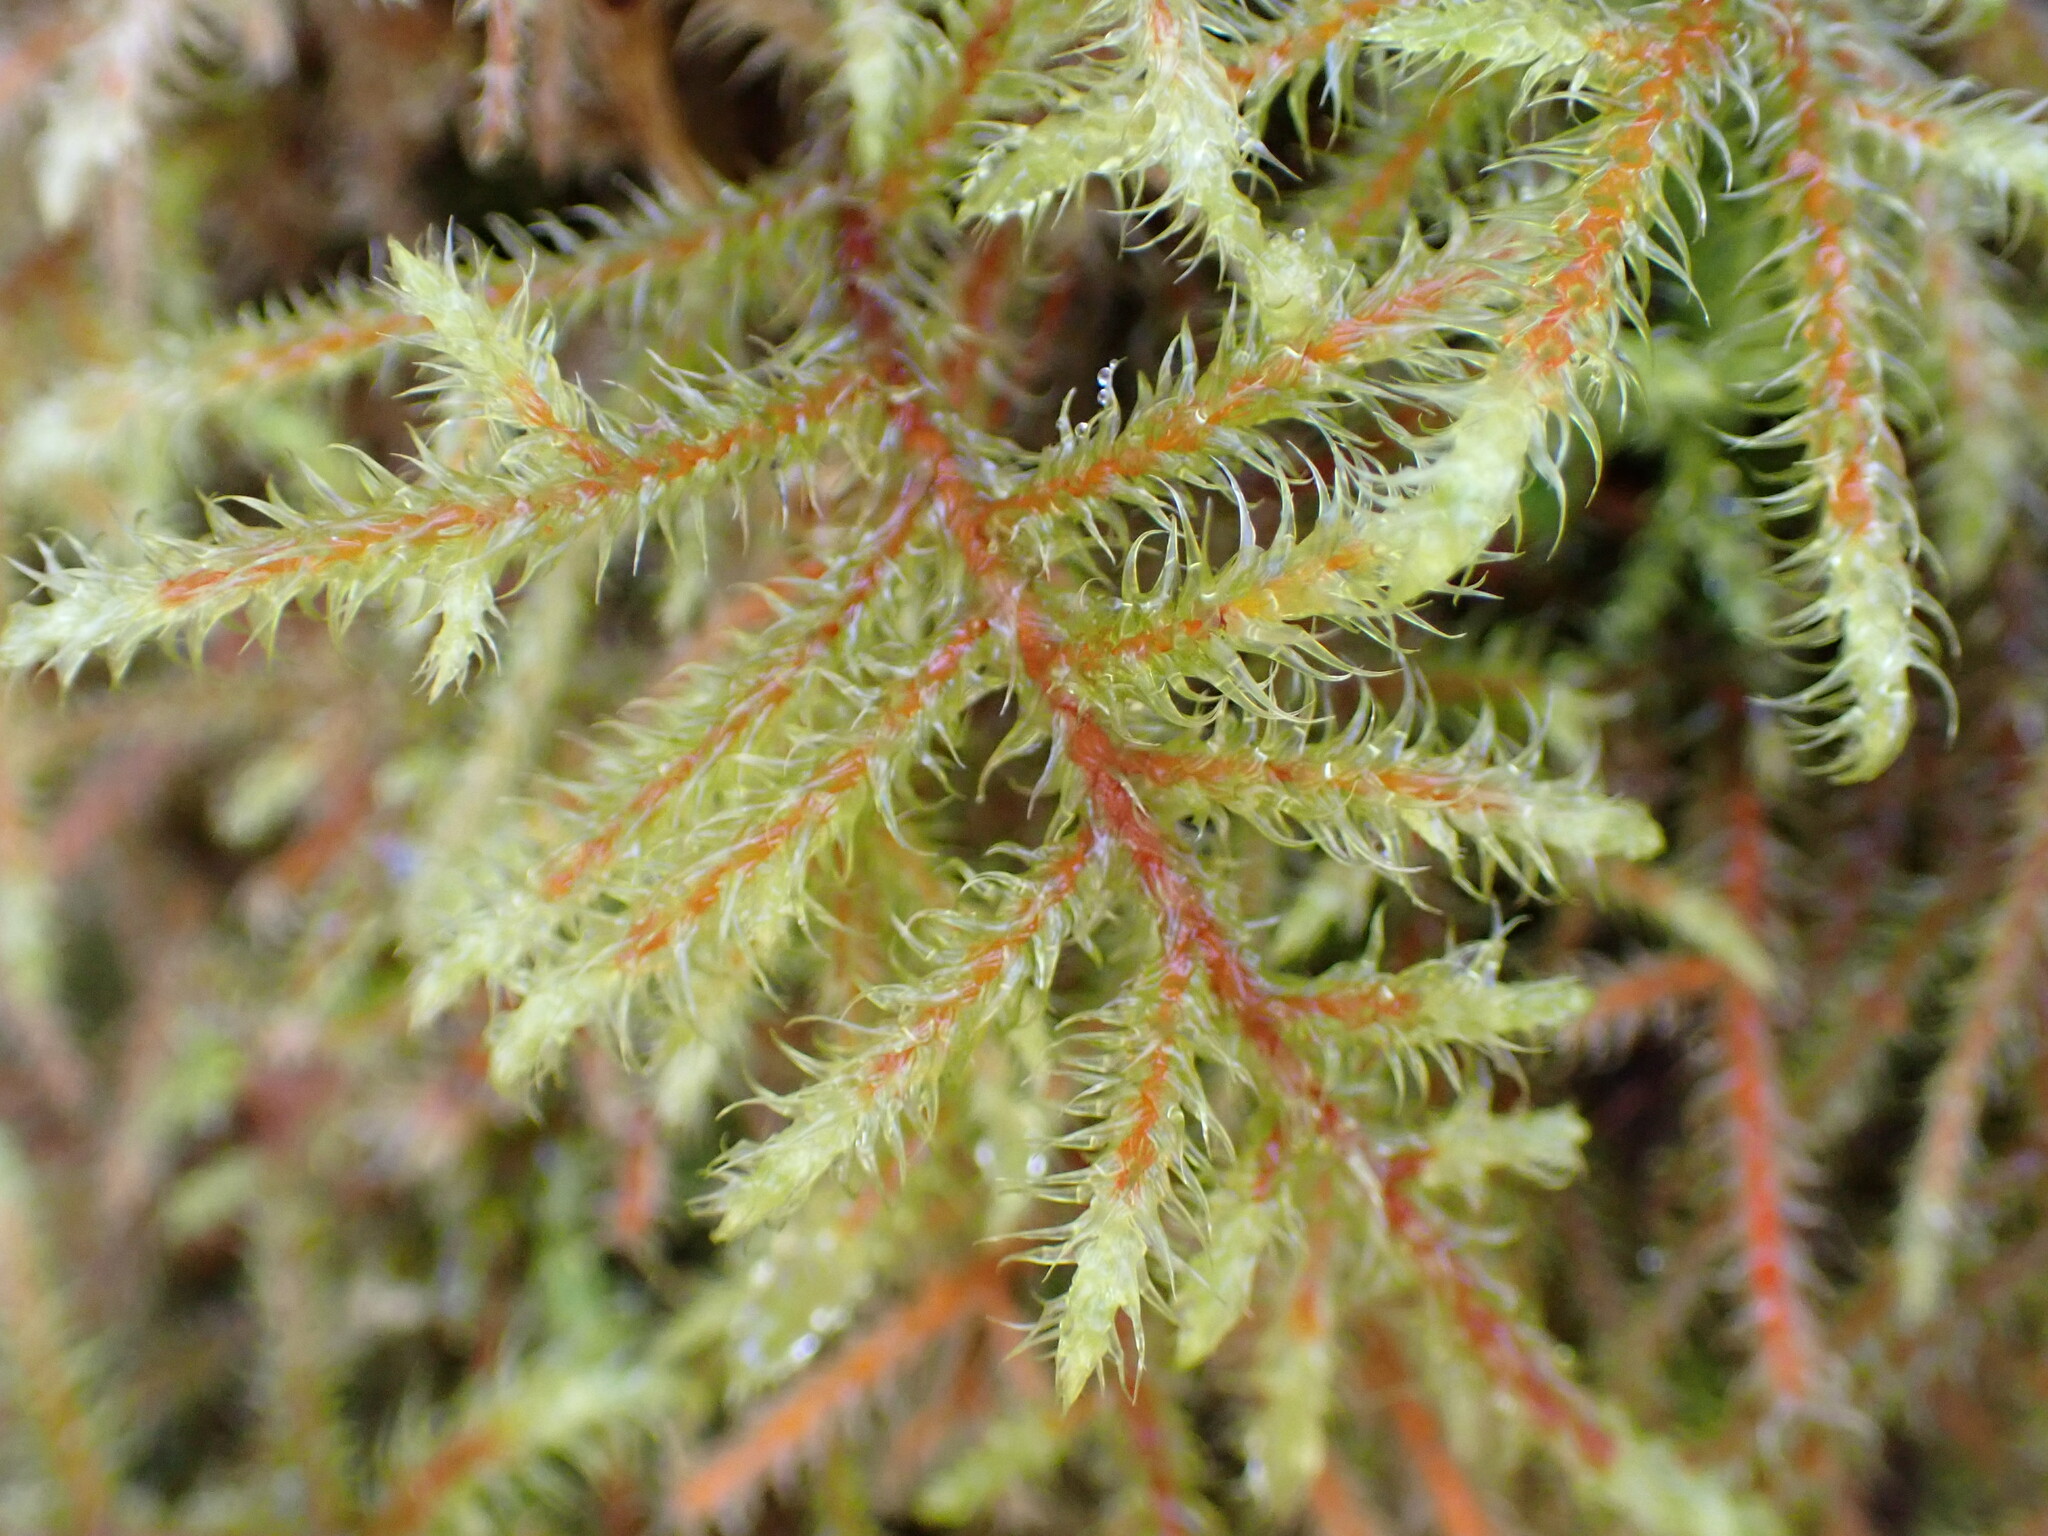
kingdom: Plantae
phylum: Bryophyta
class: Bryopsida
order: Hypnales
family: Hylocomiaceae
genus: Rhytidiadelphus
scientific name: Rhytidiadelphus loreus
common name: Lanky moss
